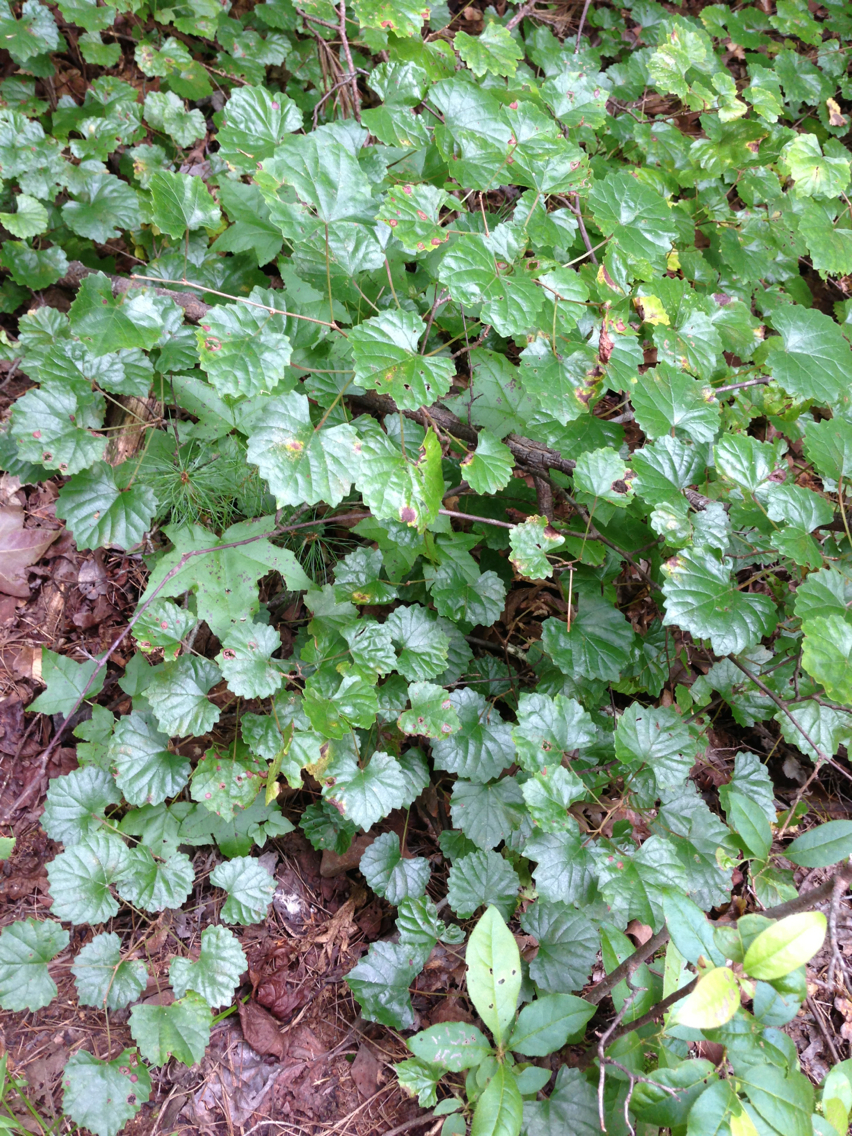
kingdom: Plantae
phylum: Tracheophyta
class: Magnoliopsida
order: Vitales
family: Vitaceae
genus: Vitis
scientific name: Vitis rotundifolia
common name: Muscadine grape
